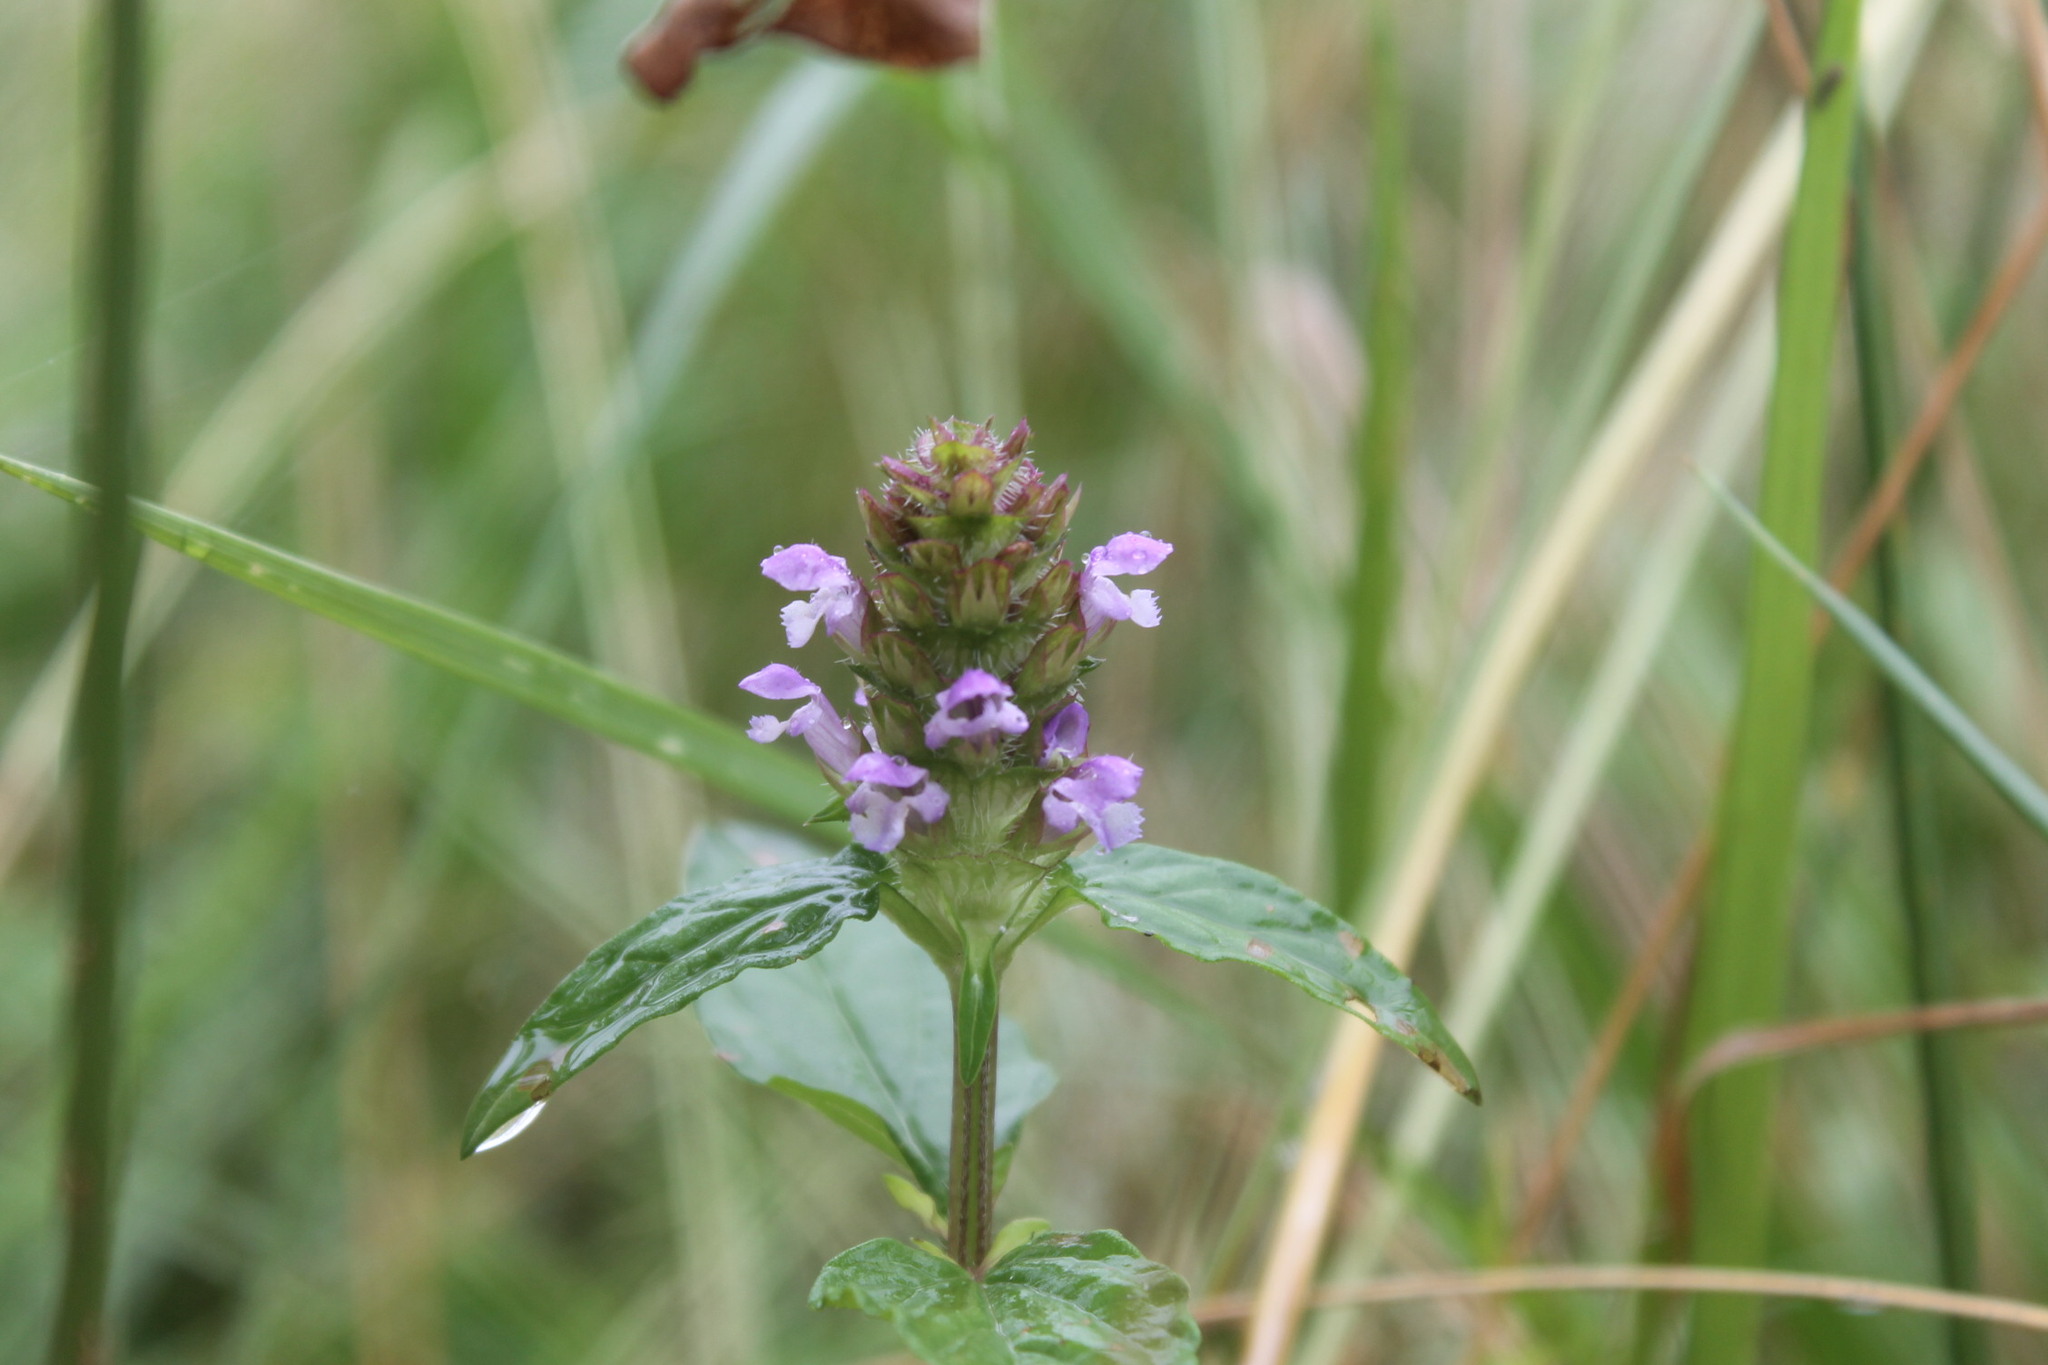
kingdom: Plantae
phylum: Tracheophyta
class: Magnoliopsida
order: Lamiales
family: Lamiaceae
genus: Prunella
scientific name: Prunella vulgaris
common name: Heal-all
